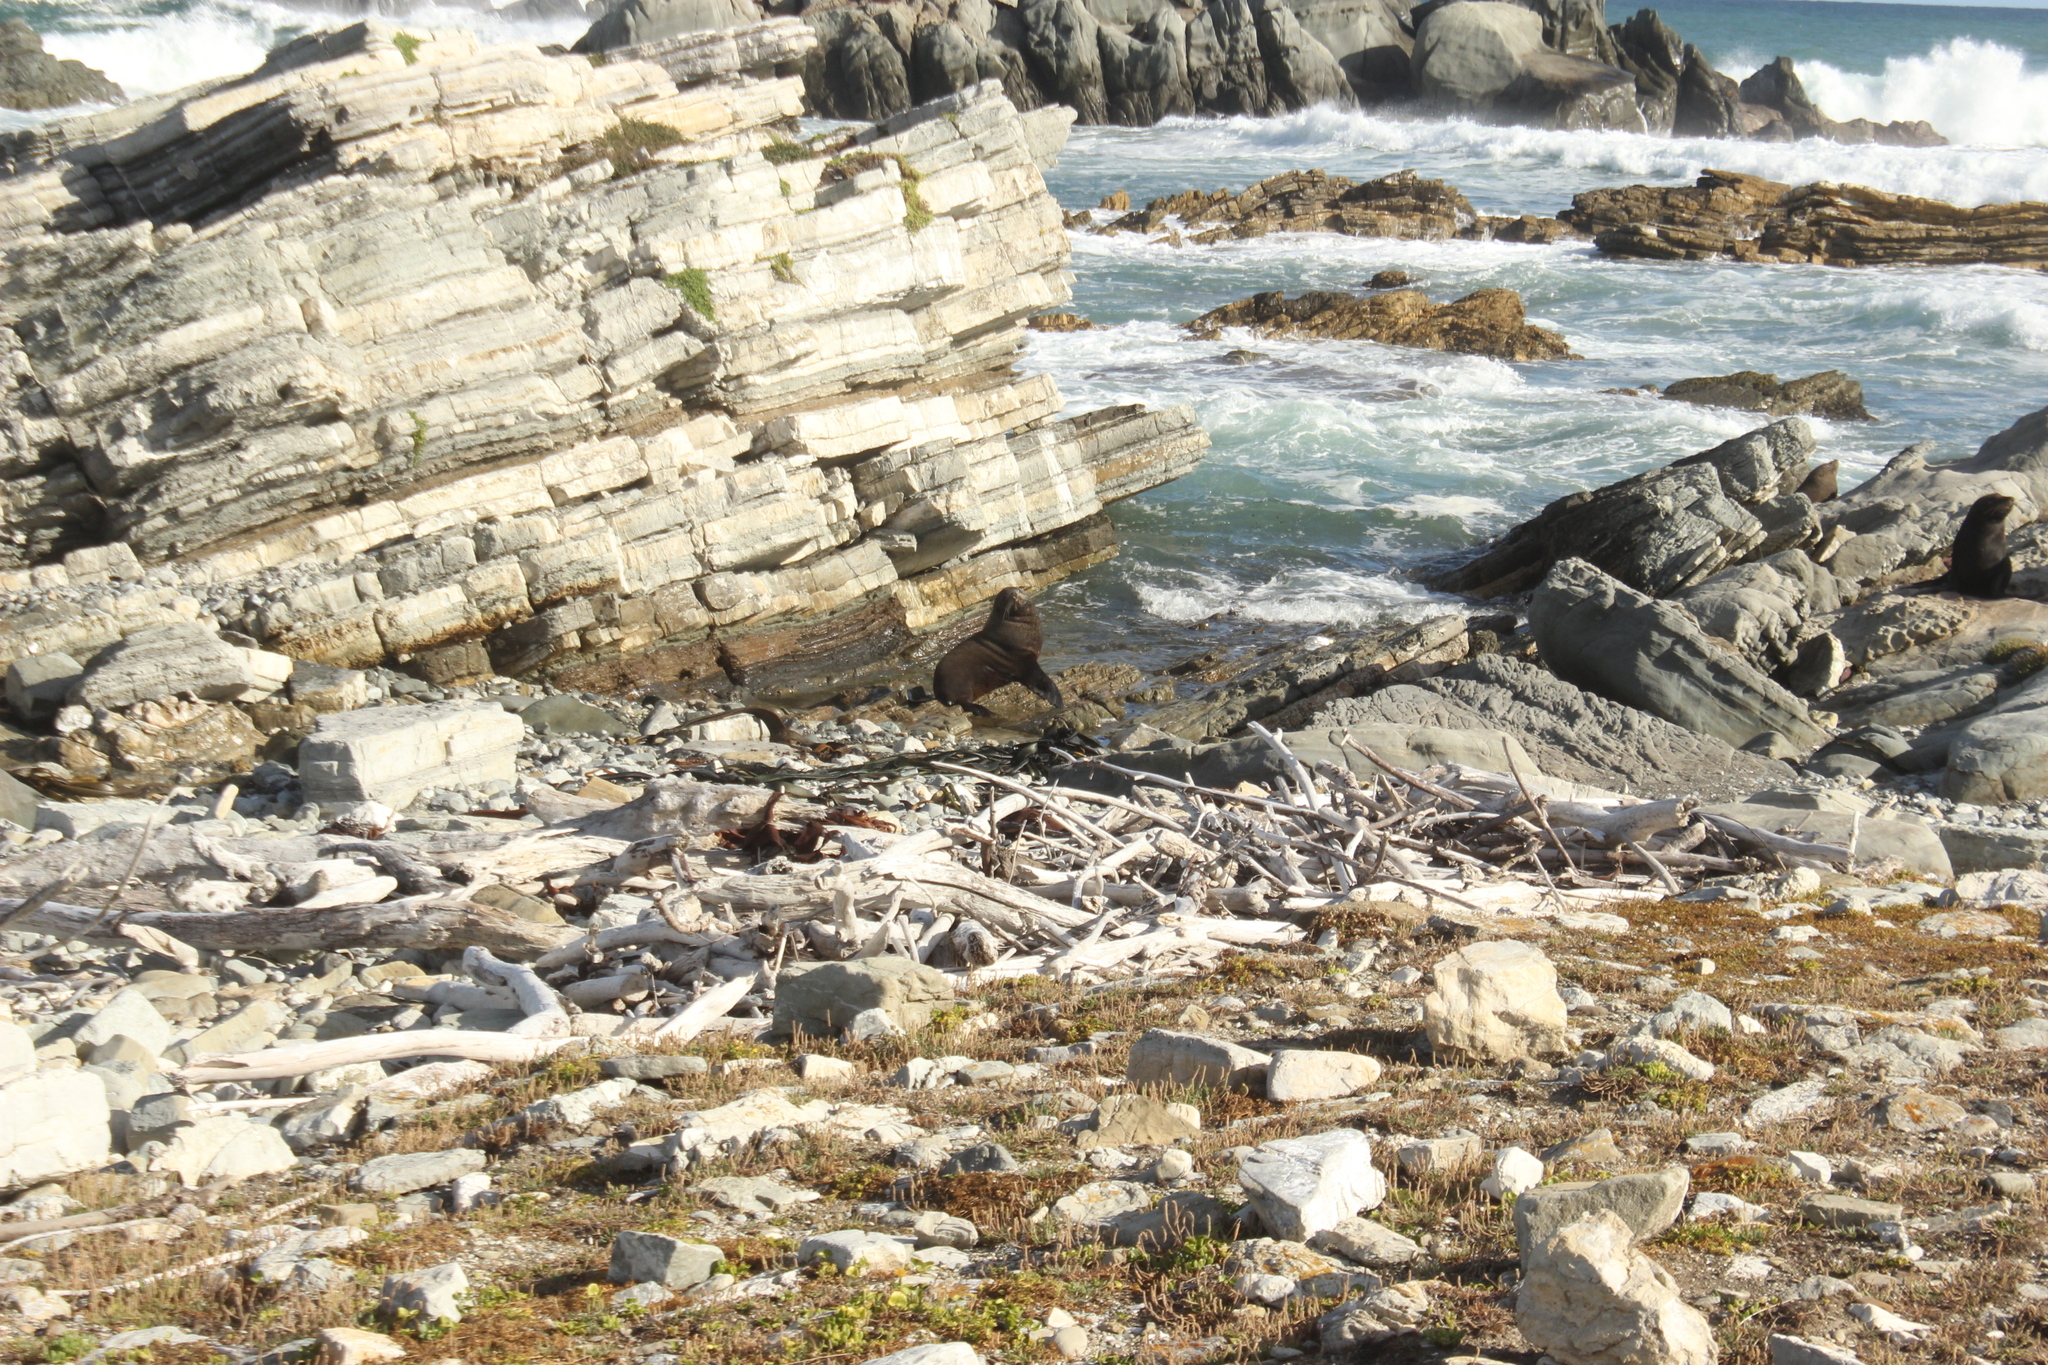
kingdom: Animalia
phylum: Chordata
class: Mammalia
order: Carnivora
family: Otariidae
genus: Arctocephalus
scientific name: Arctocephalus forsteri
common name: New zealand fur seal
